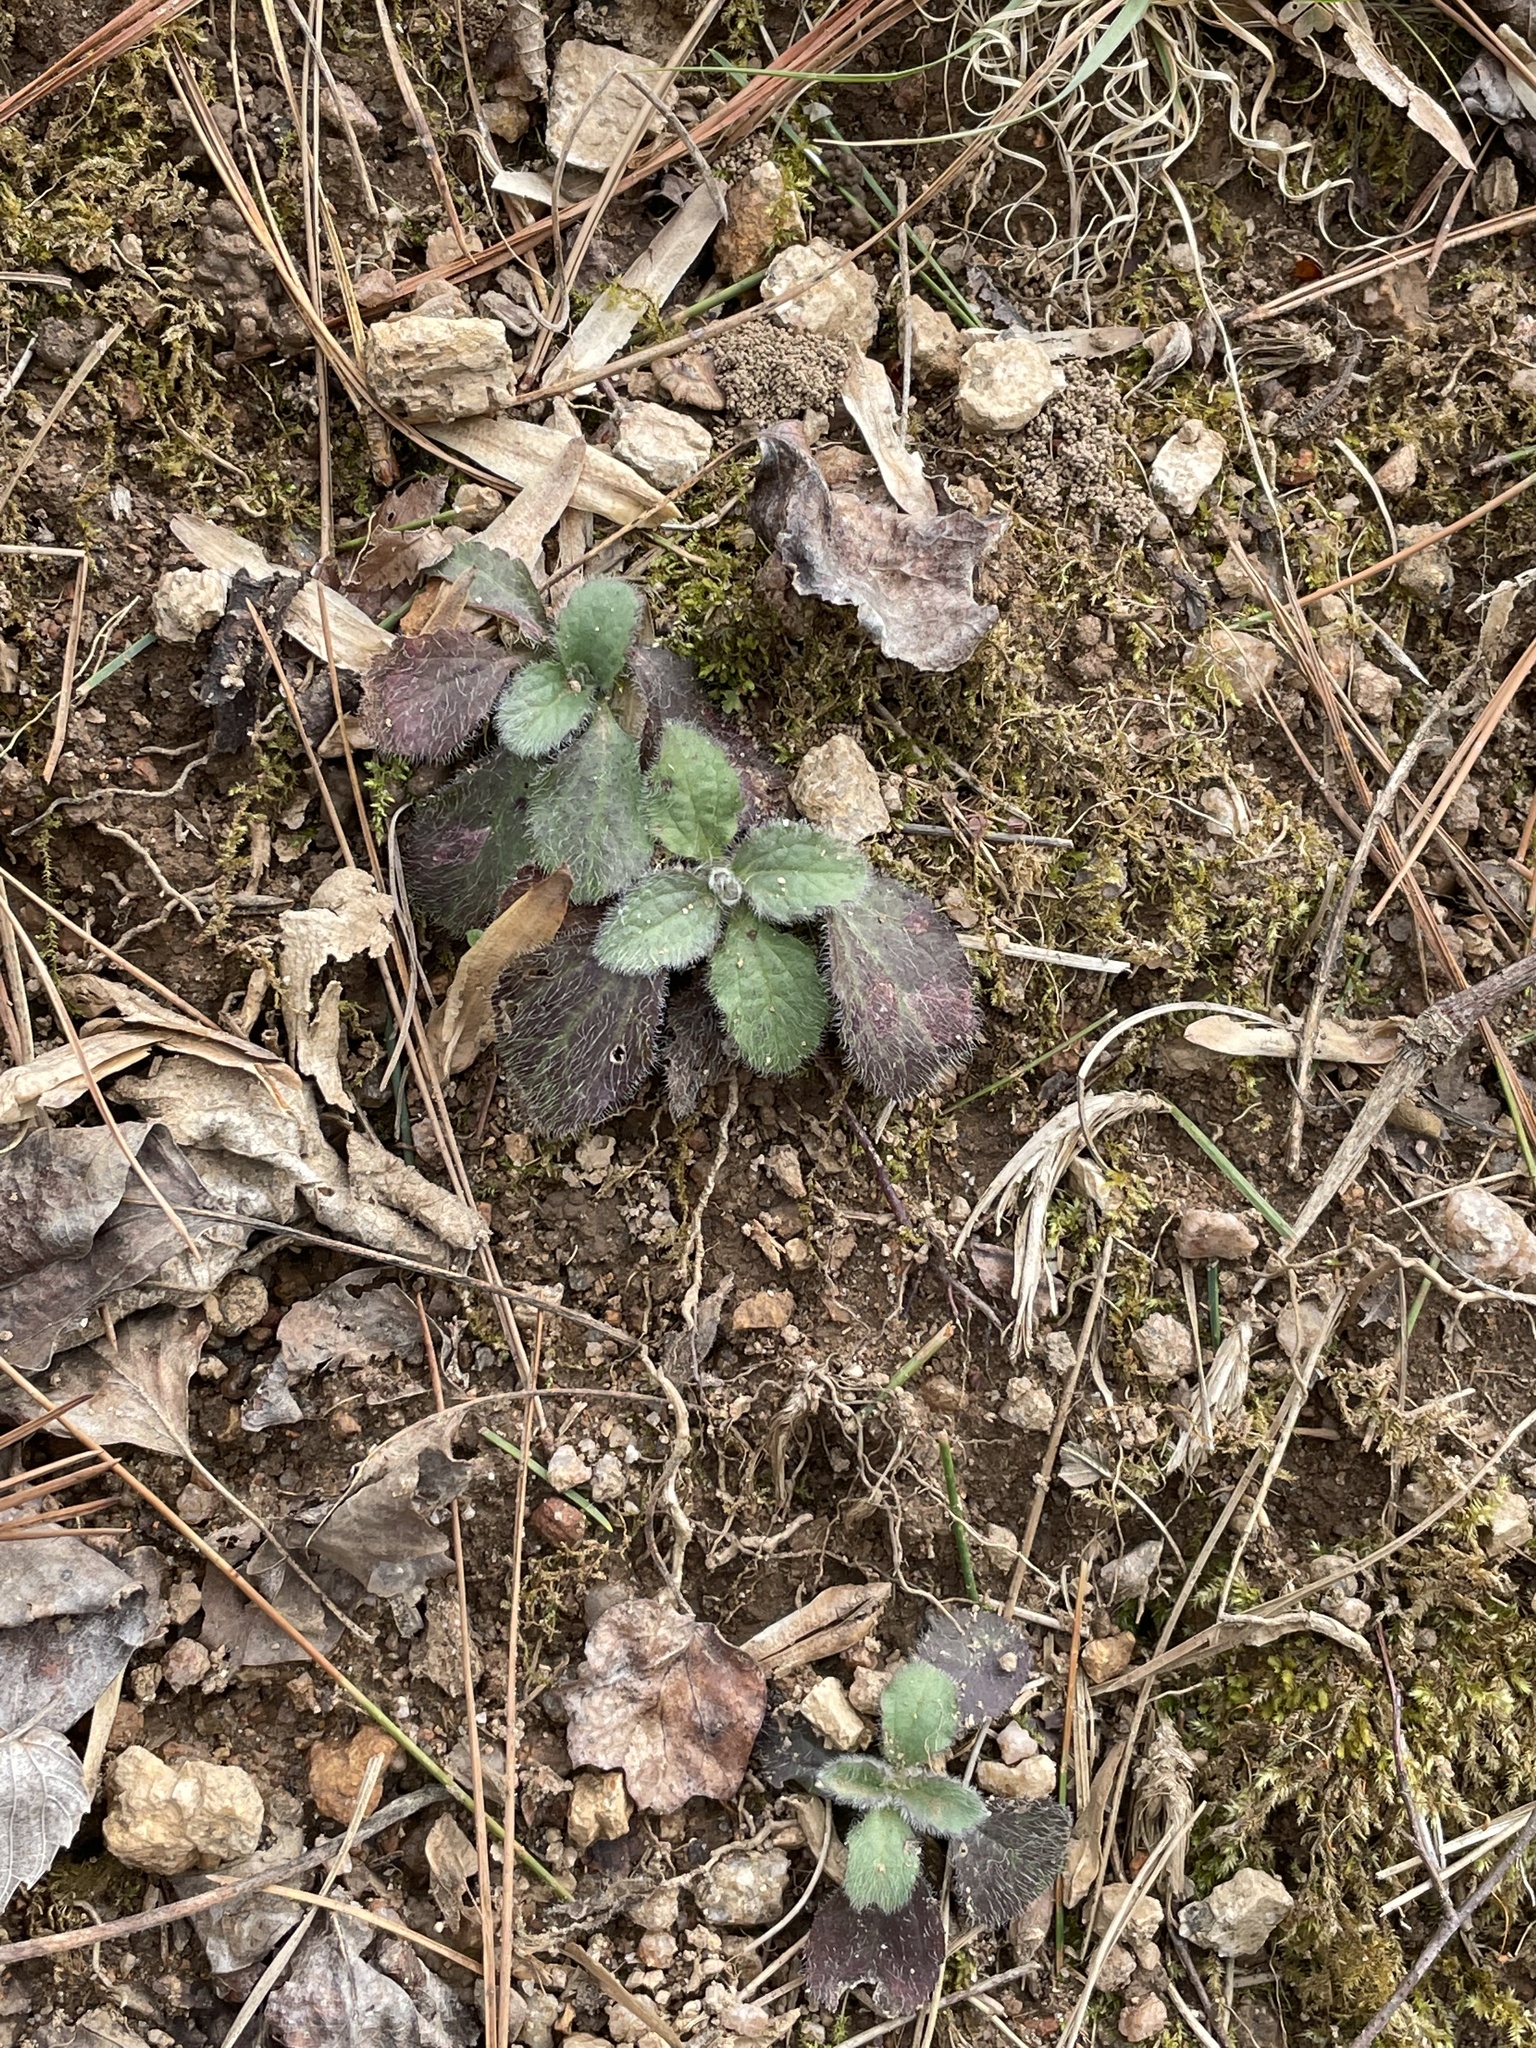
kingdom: Plantae
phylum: Tracheophyta
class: Magnoliopsida
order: Asterales
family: Asteraceae
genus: Chrysogonum
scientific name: Chrysogonum virginianum
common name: Golden-knee
